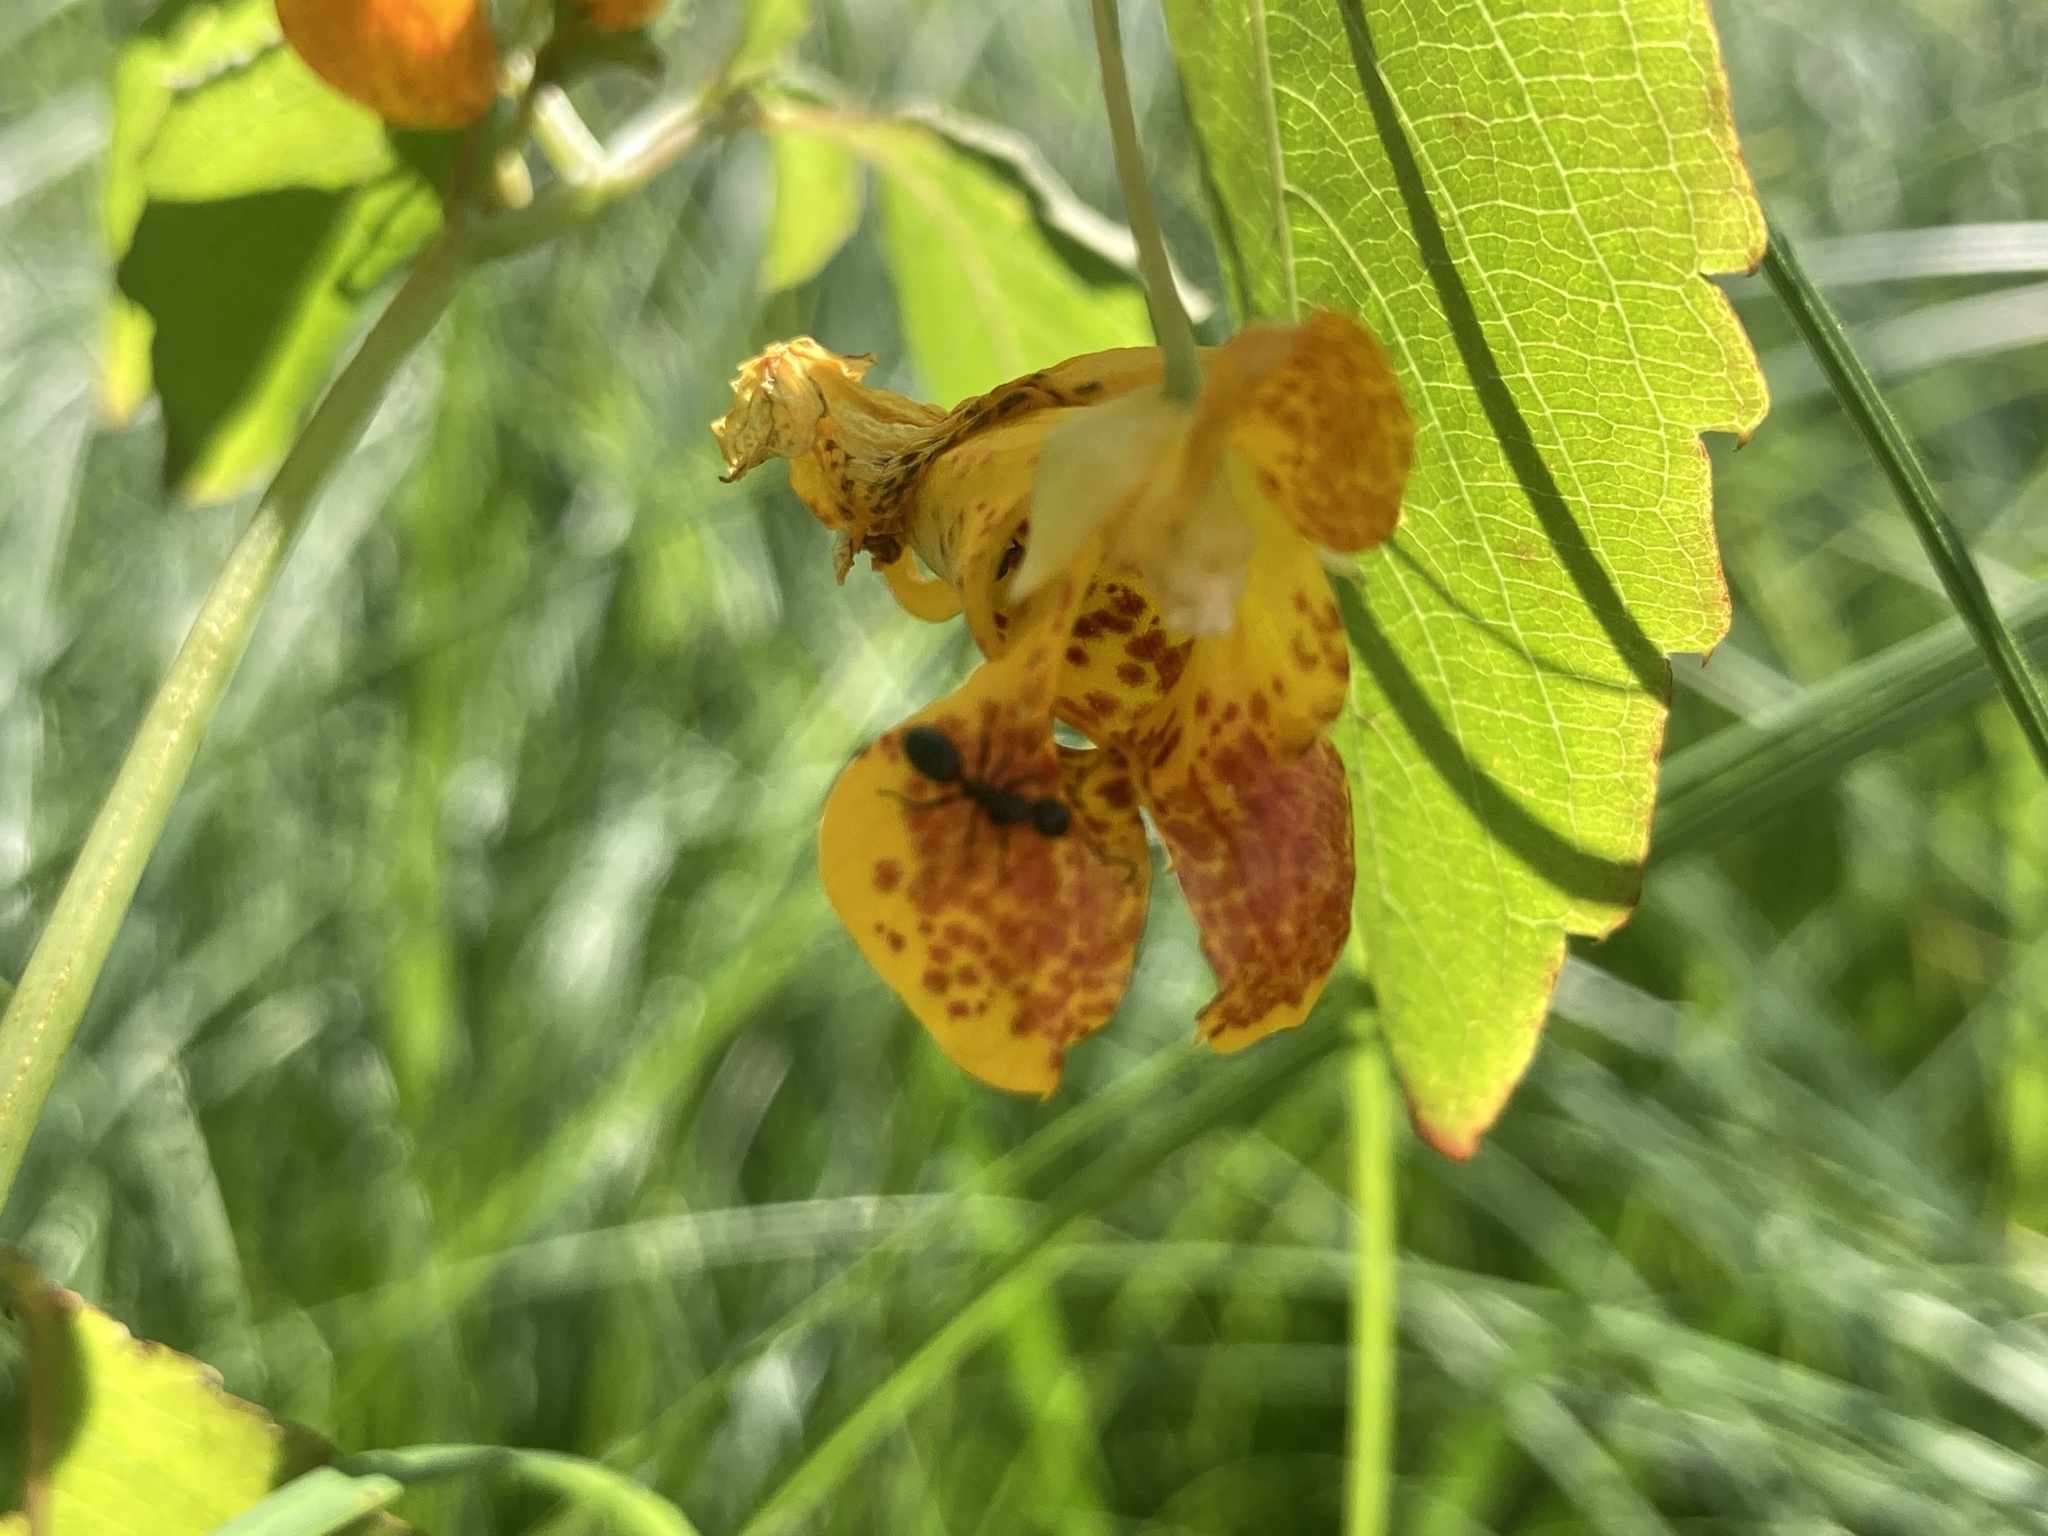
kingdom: Plantae
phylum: Tracheophyta
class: Magnoliopsida
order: Ericales
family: Balsaminaceae
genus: Impatiens
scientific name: Impatiens capensis
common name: Orange balsam
